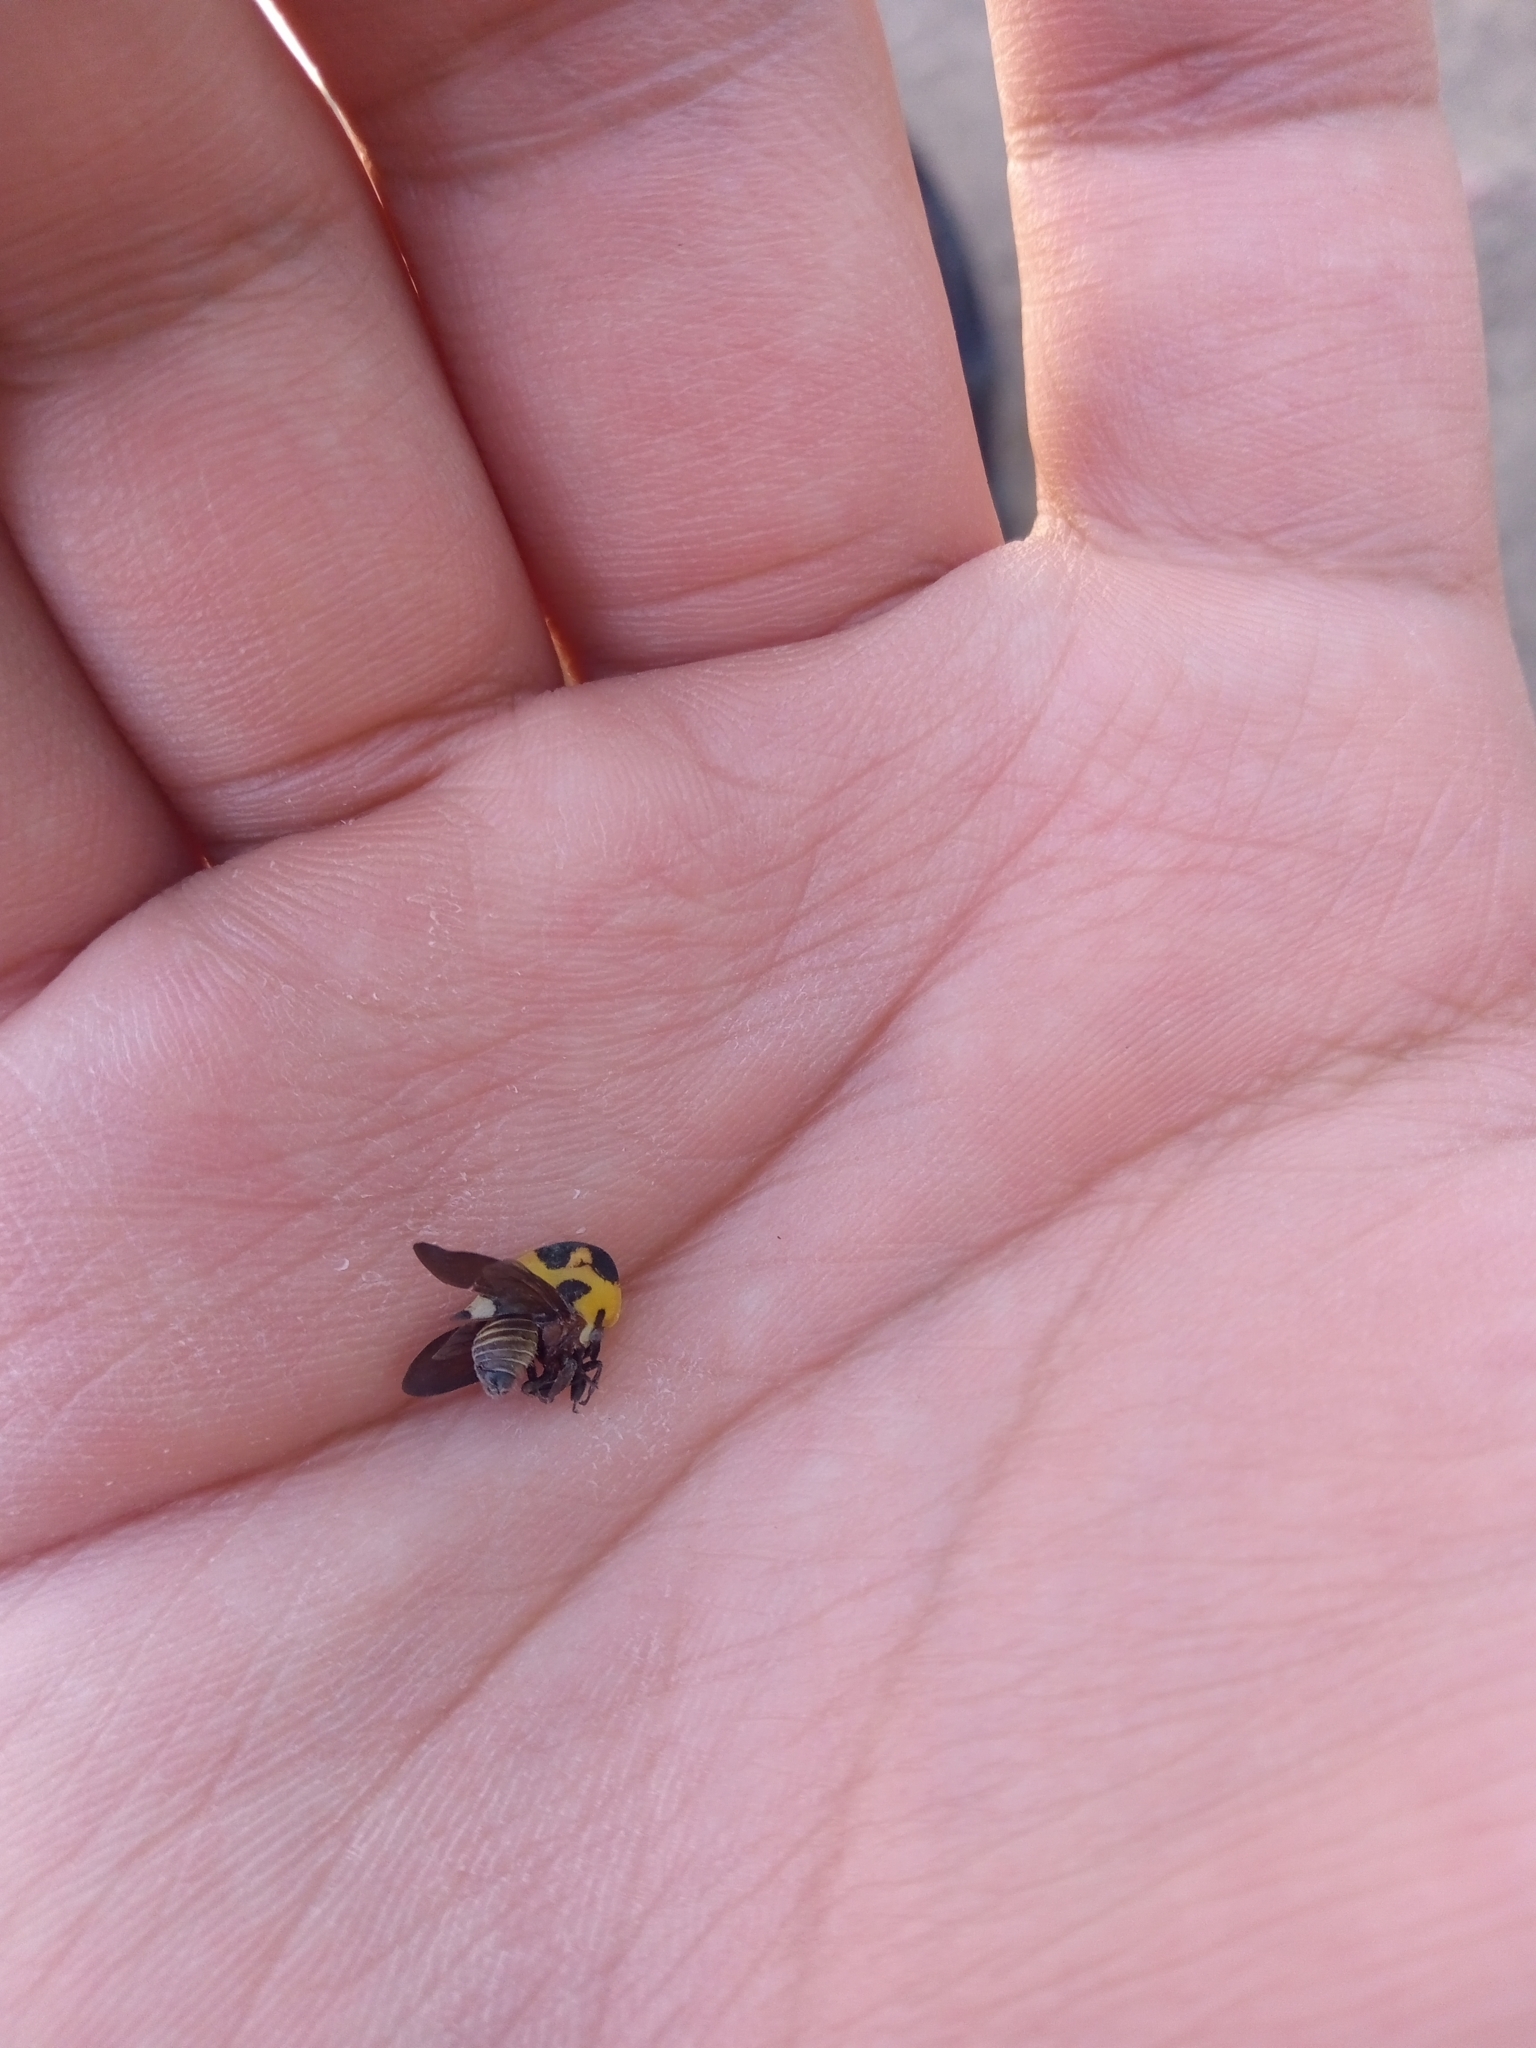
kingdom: Animalia
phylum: Arthropoda
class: Insecta
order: Hemiptera
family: Membracidae
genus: Membracis
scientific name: Membracis mexicana
